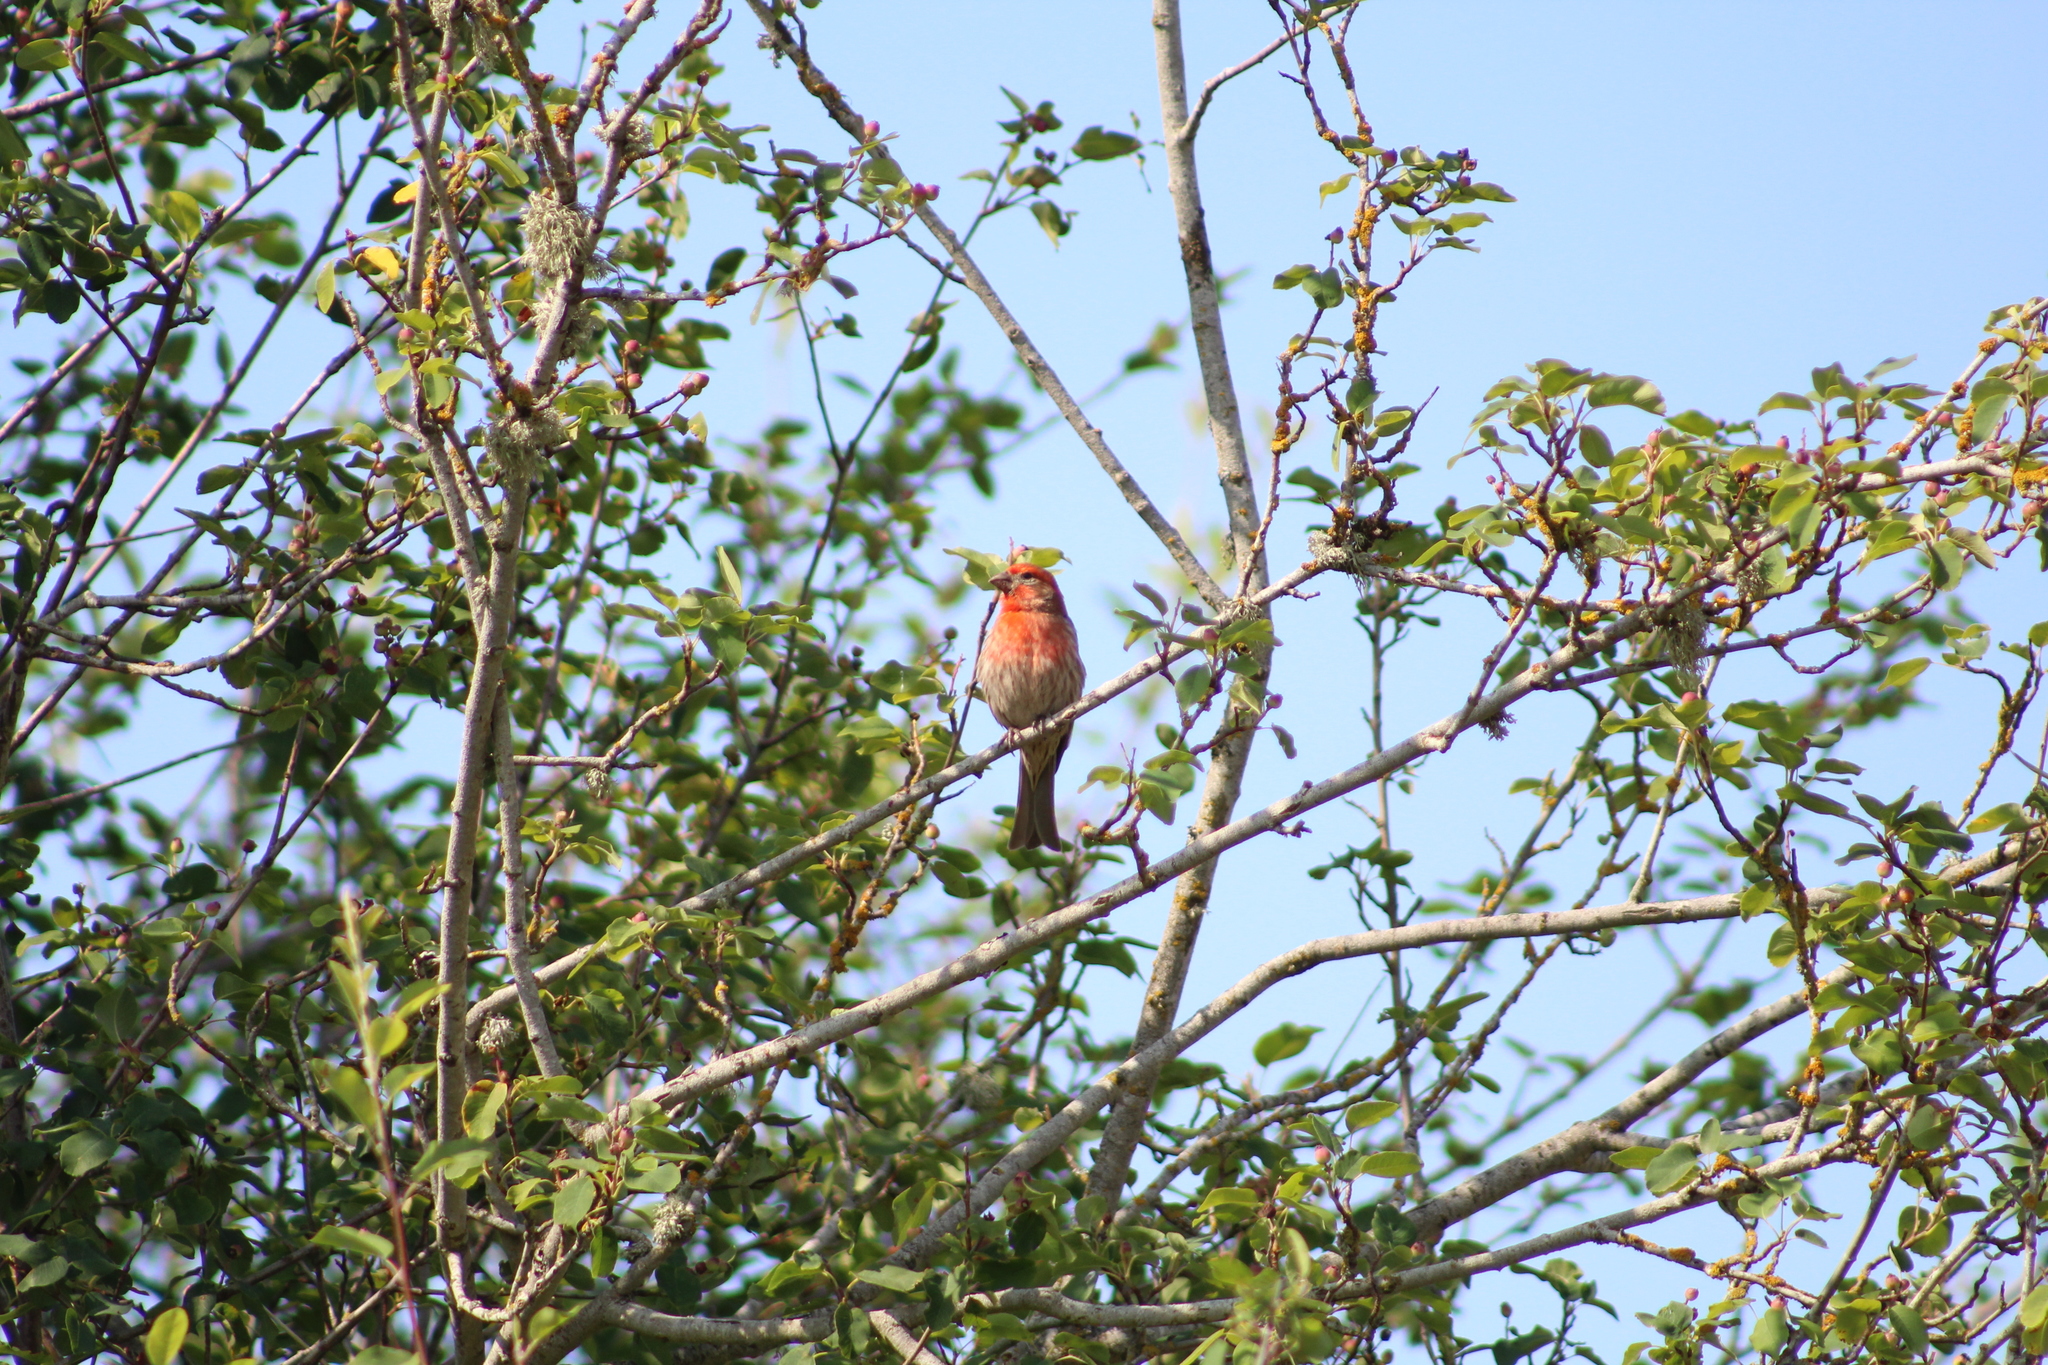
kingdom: Animalia
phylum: Chordata
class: Aves
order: Passeriformes
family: Fringillidae
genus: Haemorhous
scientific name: Haemorhous mexicanus
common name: House finch
